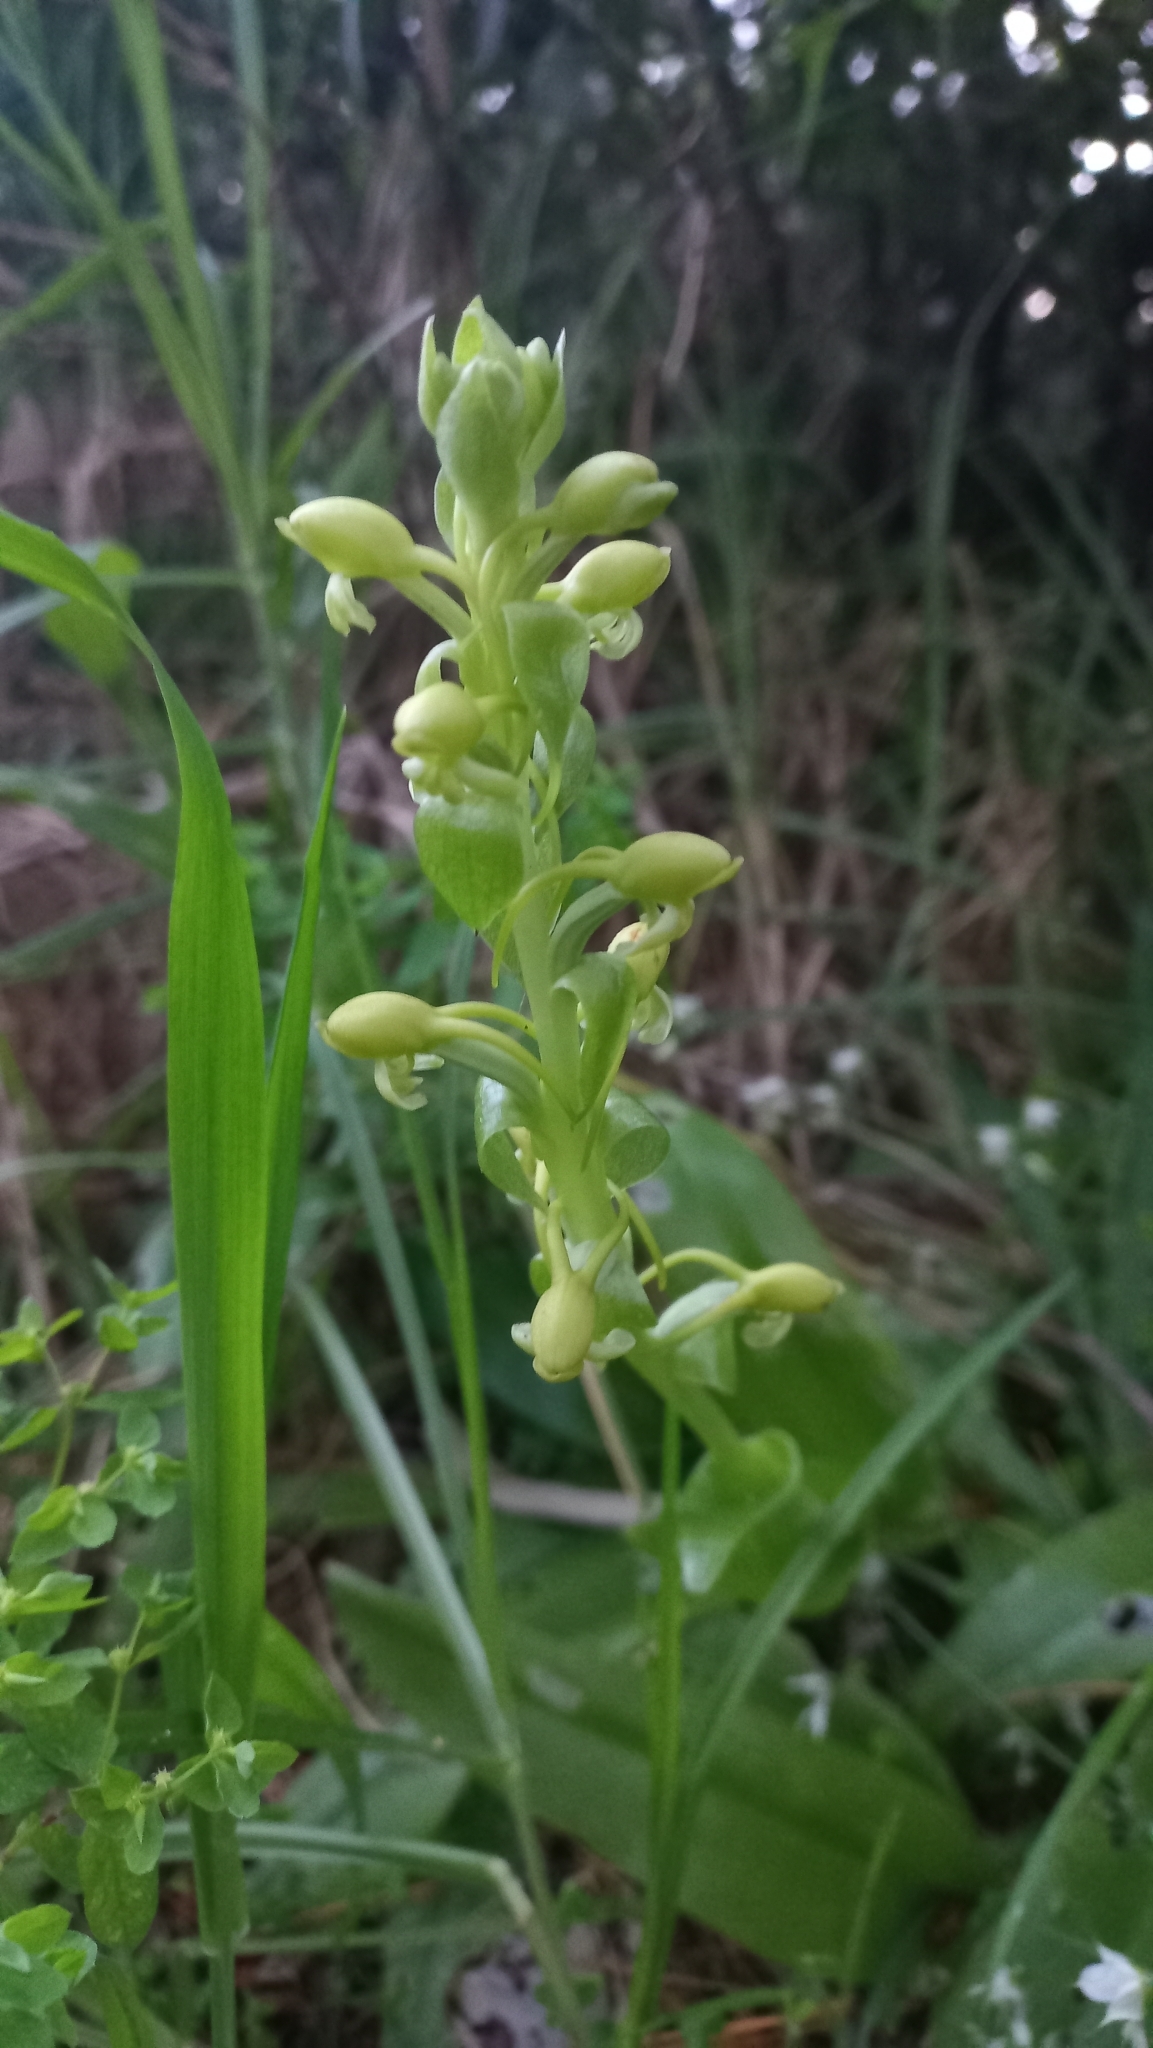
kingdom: Plantae
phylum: Tracheophyta
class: Liliopsida
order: Asparagales
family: Orchidaceae
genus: Satyrium
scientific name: Satyrium odorum
